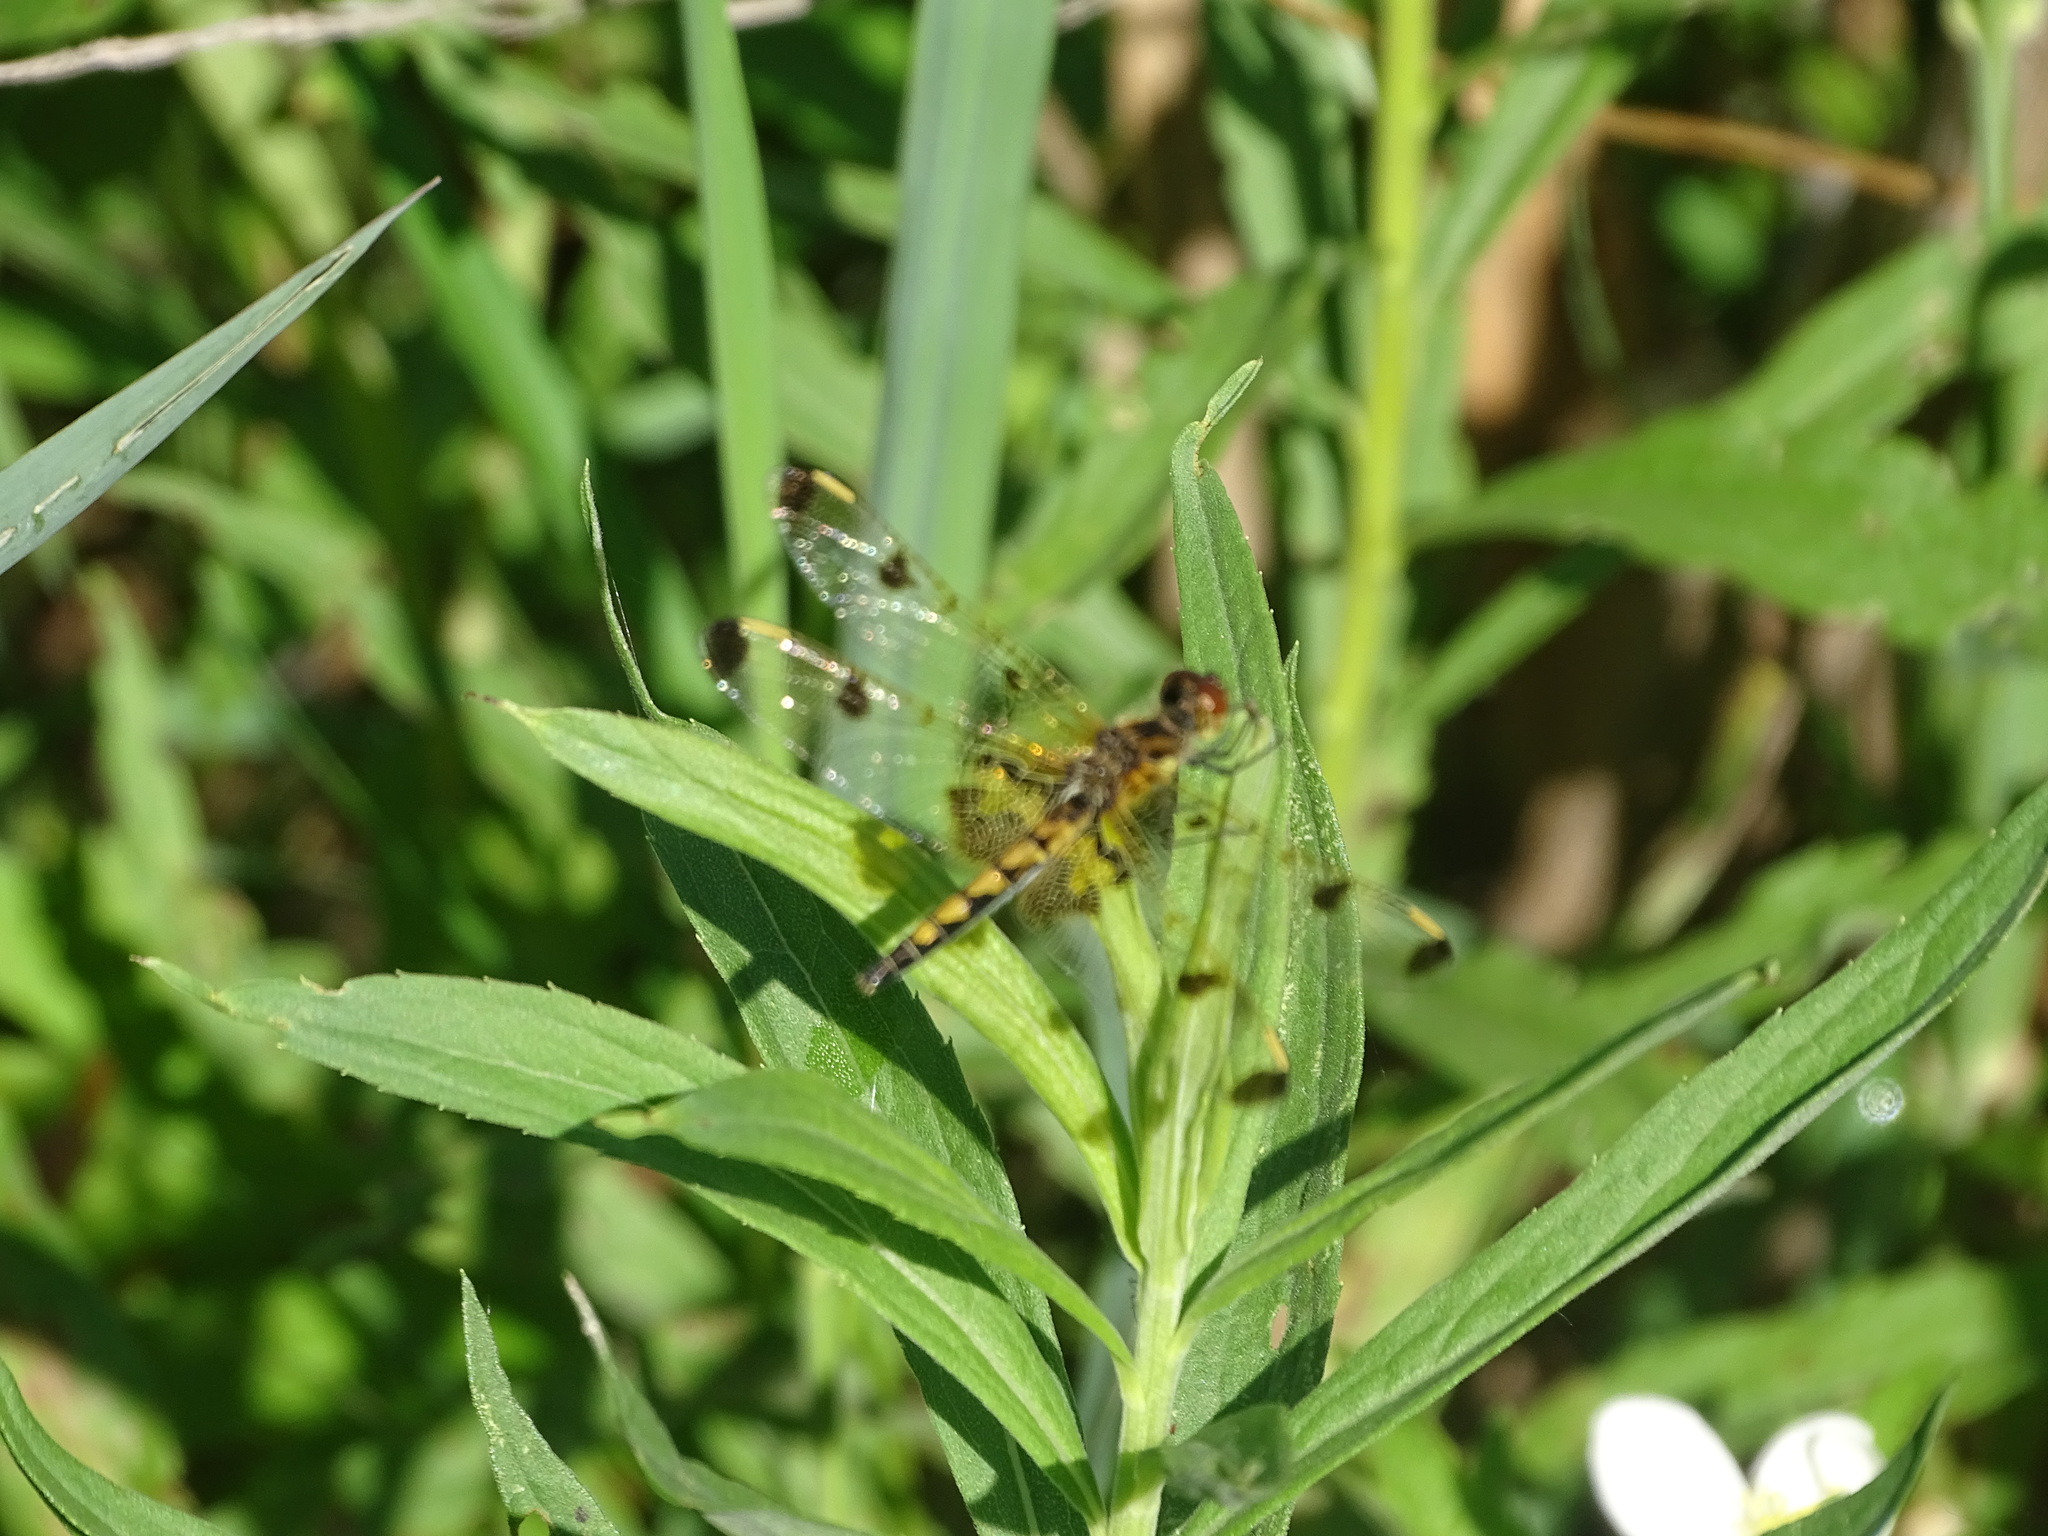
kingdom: Animalia
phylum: Arthropoda
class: Insecta
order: Odonata
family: Libellulidae
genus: Celithemis
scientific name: Celithemis elisa
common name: Calico pennant
